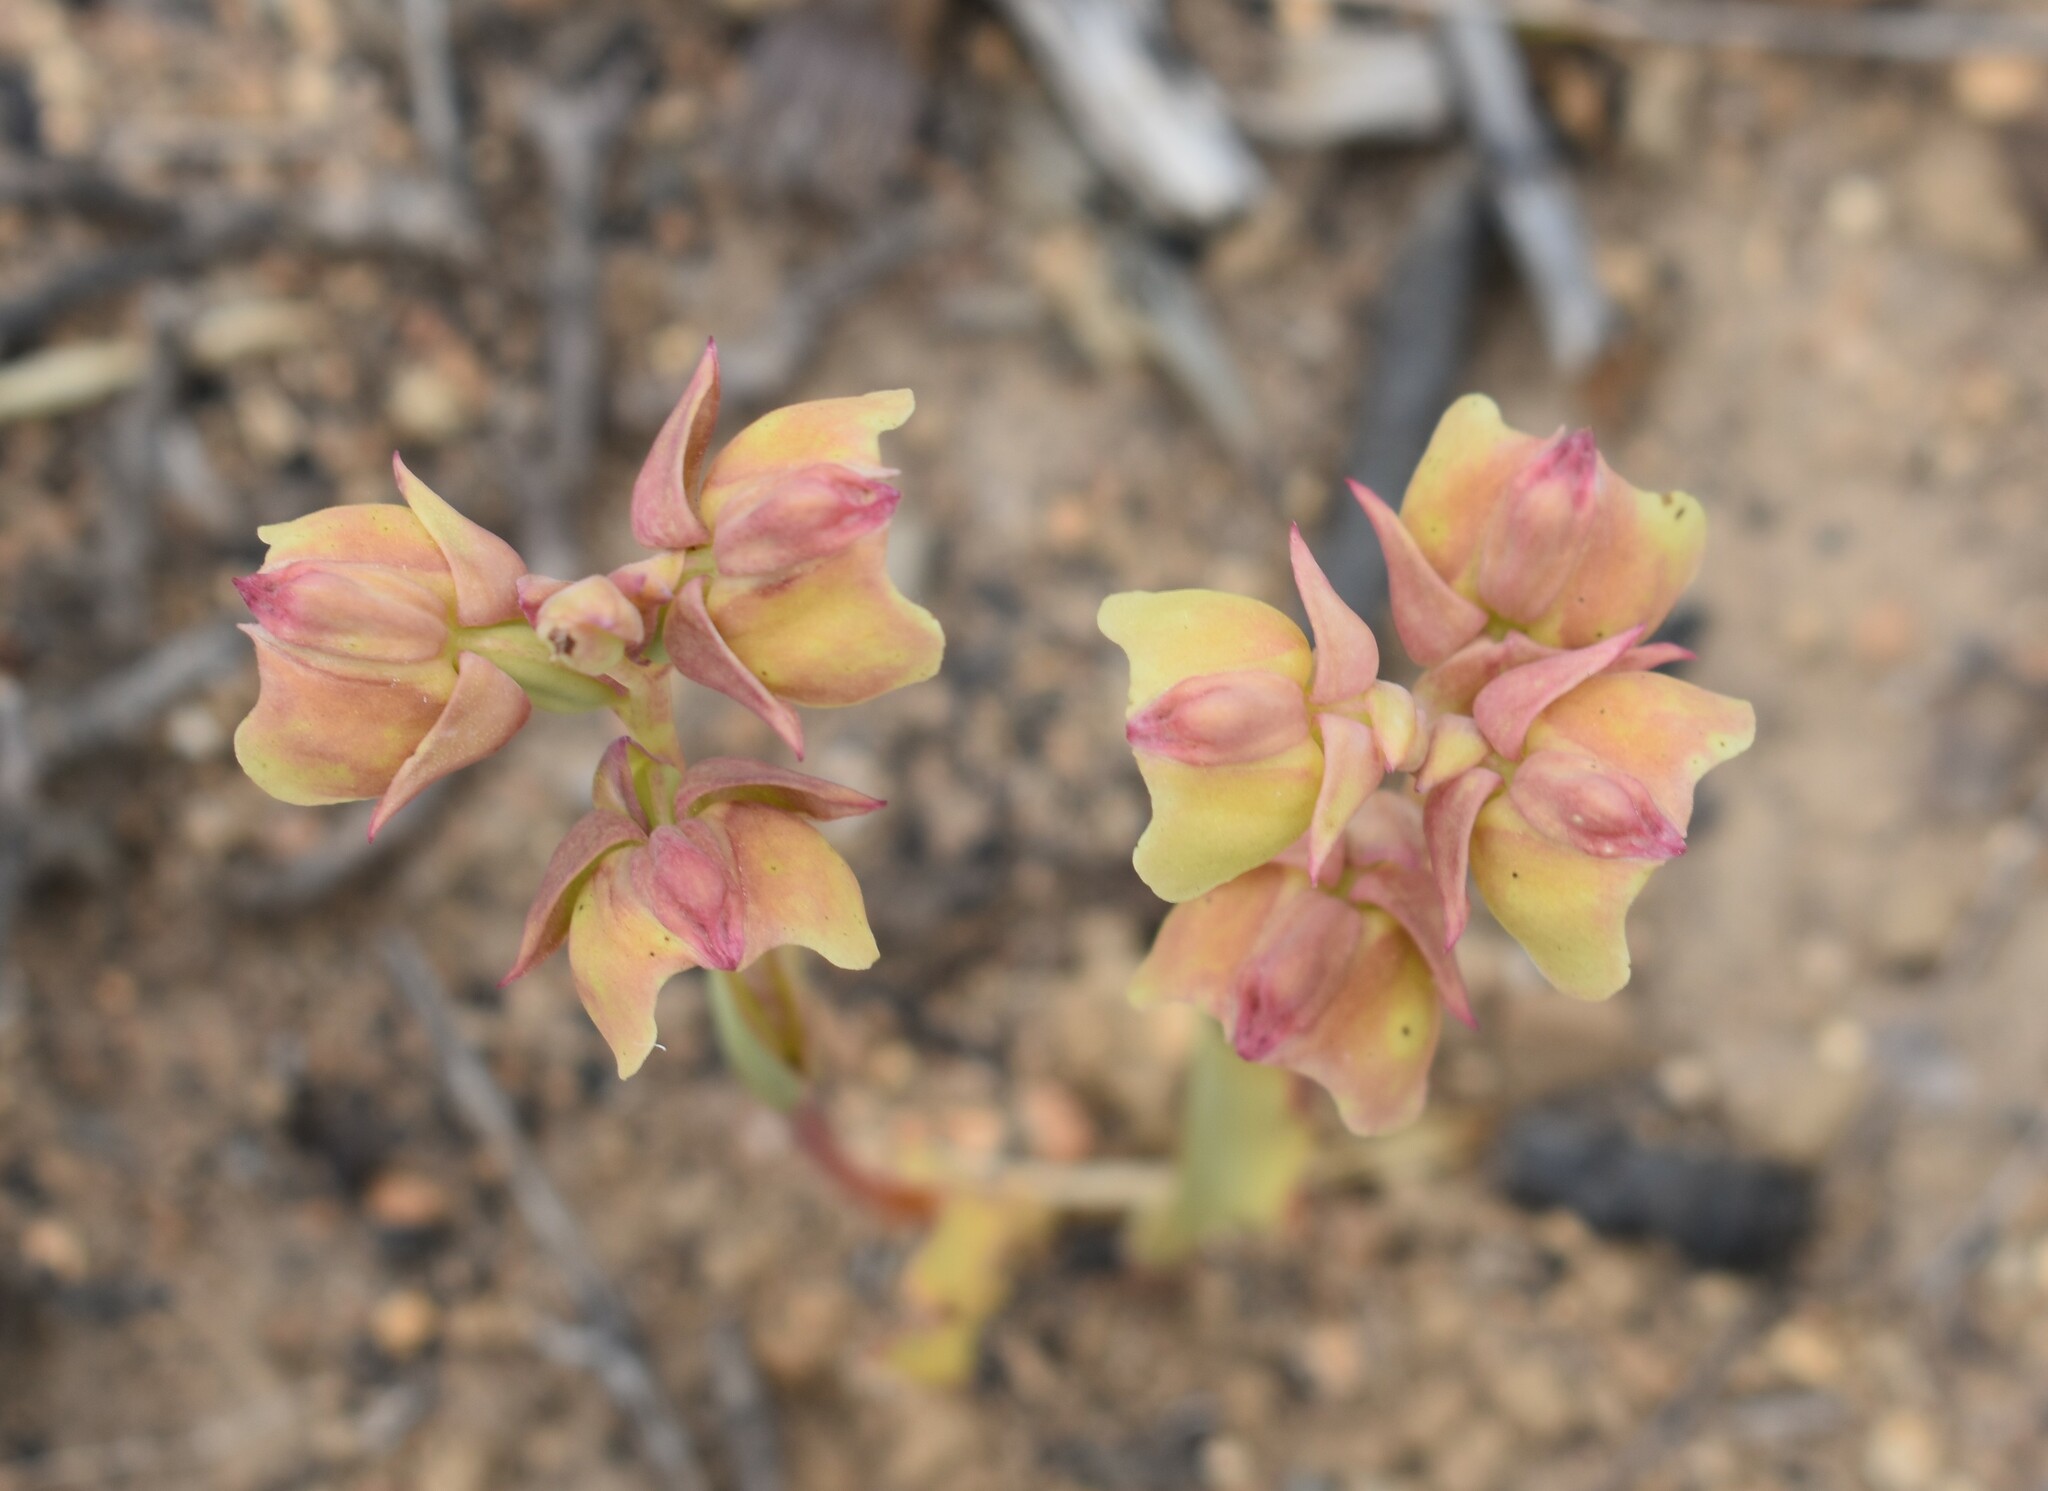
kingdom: Plantae
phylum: Tracheophyta
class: Liliopsida
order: Asparagales
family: Orchidaceae
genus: Pterygodium
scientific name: Pterygodium catholicum
